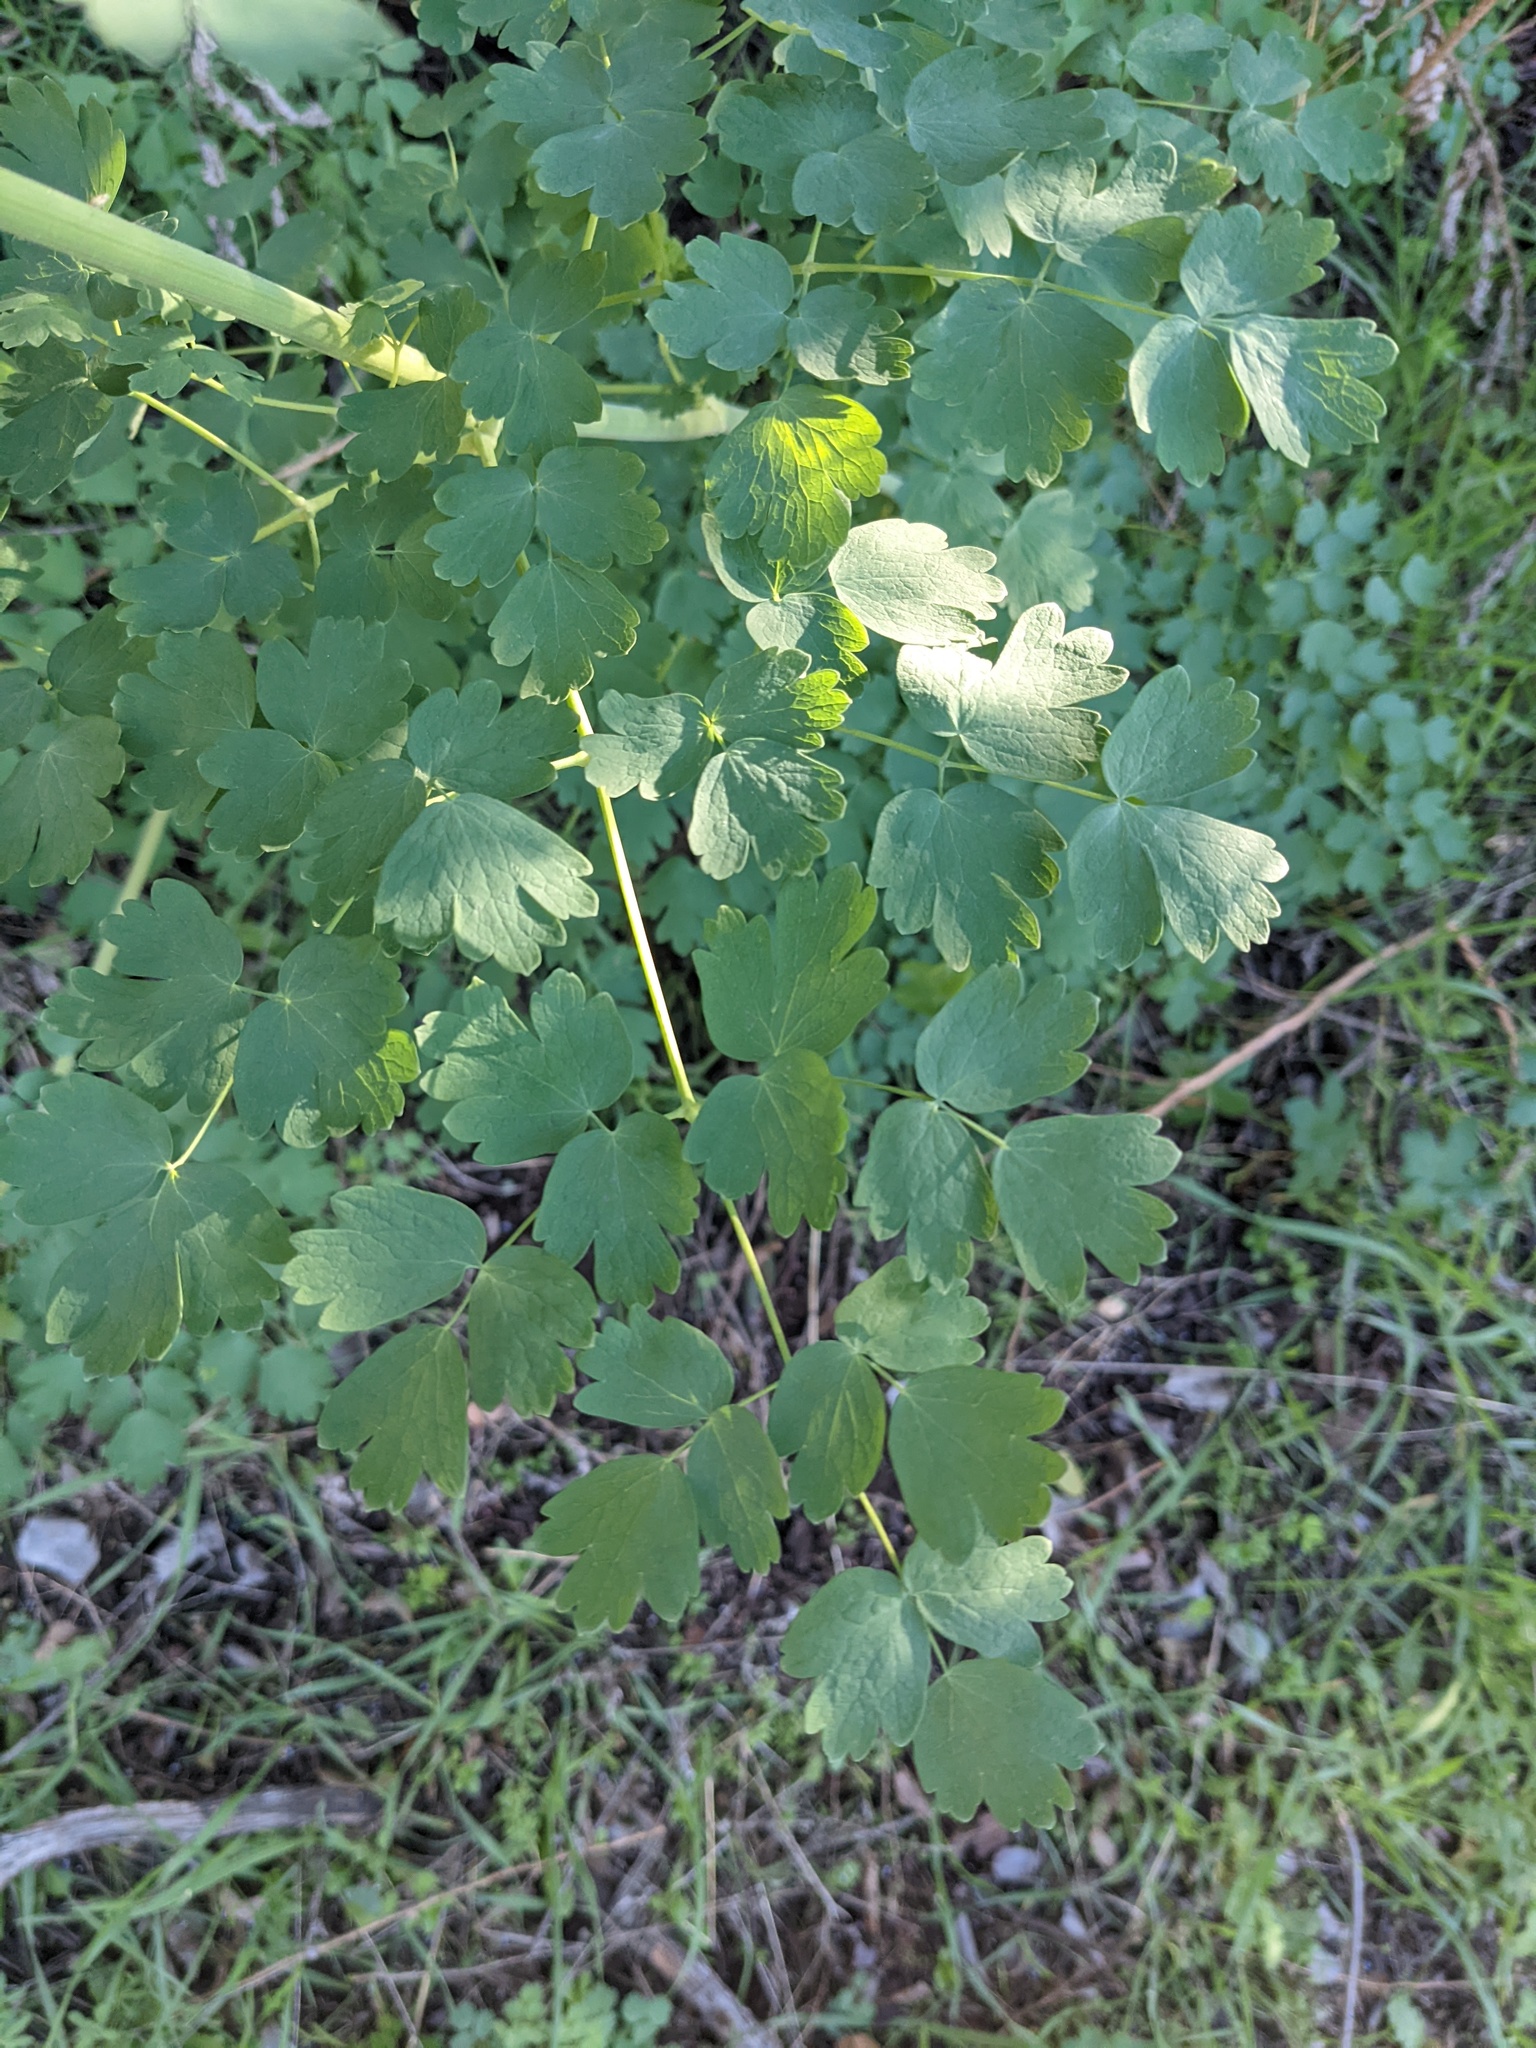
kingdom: Plantae
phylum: Tracheophyta
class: Magnoliopsida
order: Ranunculales
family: Ranunculaceae
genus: Thalictrum
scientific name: Thalictrum fendleri
